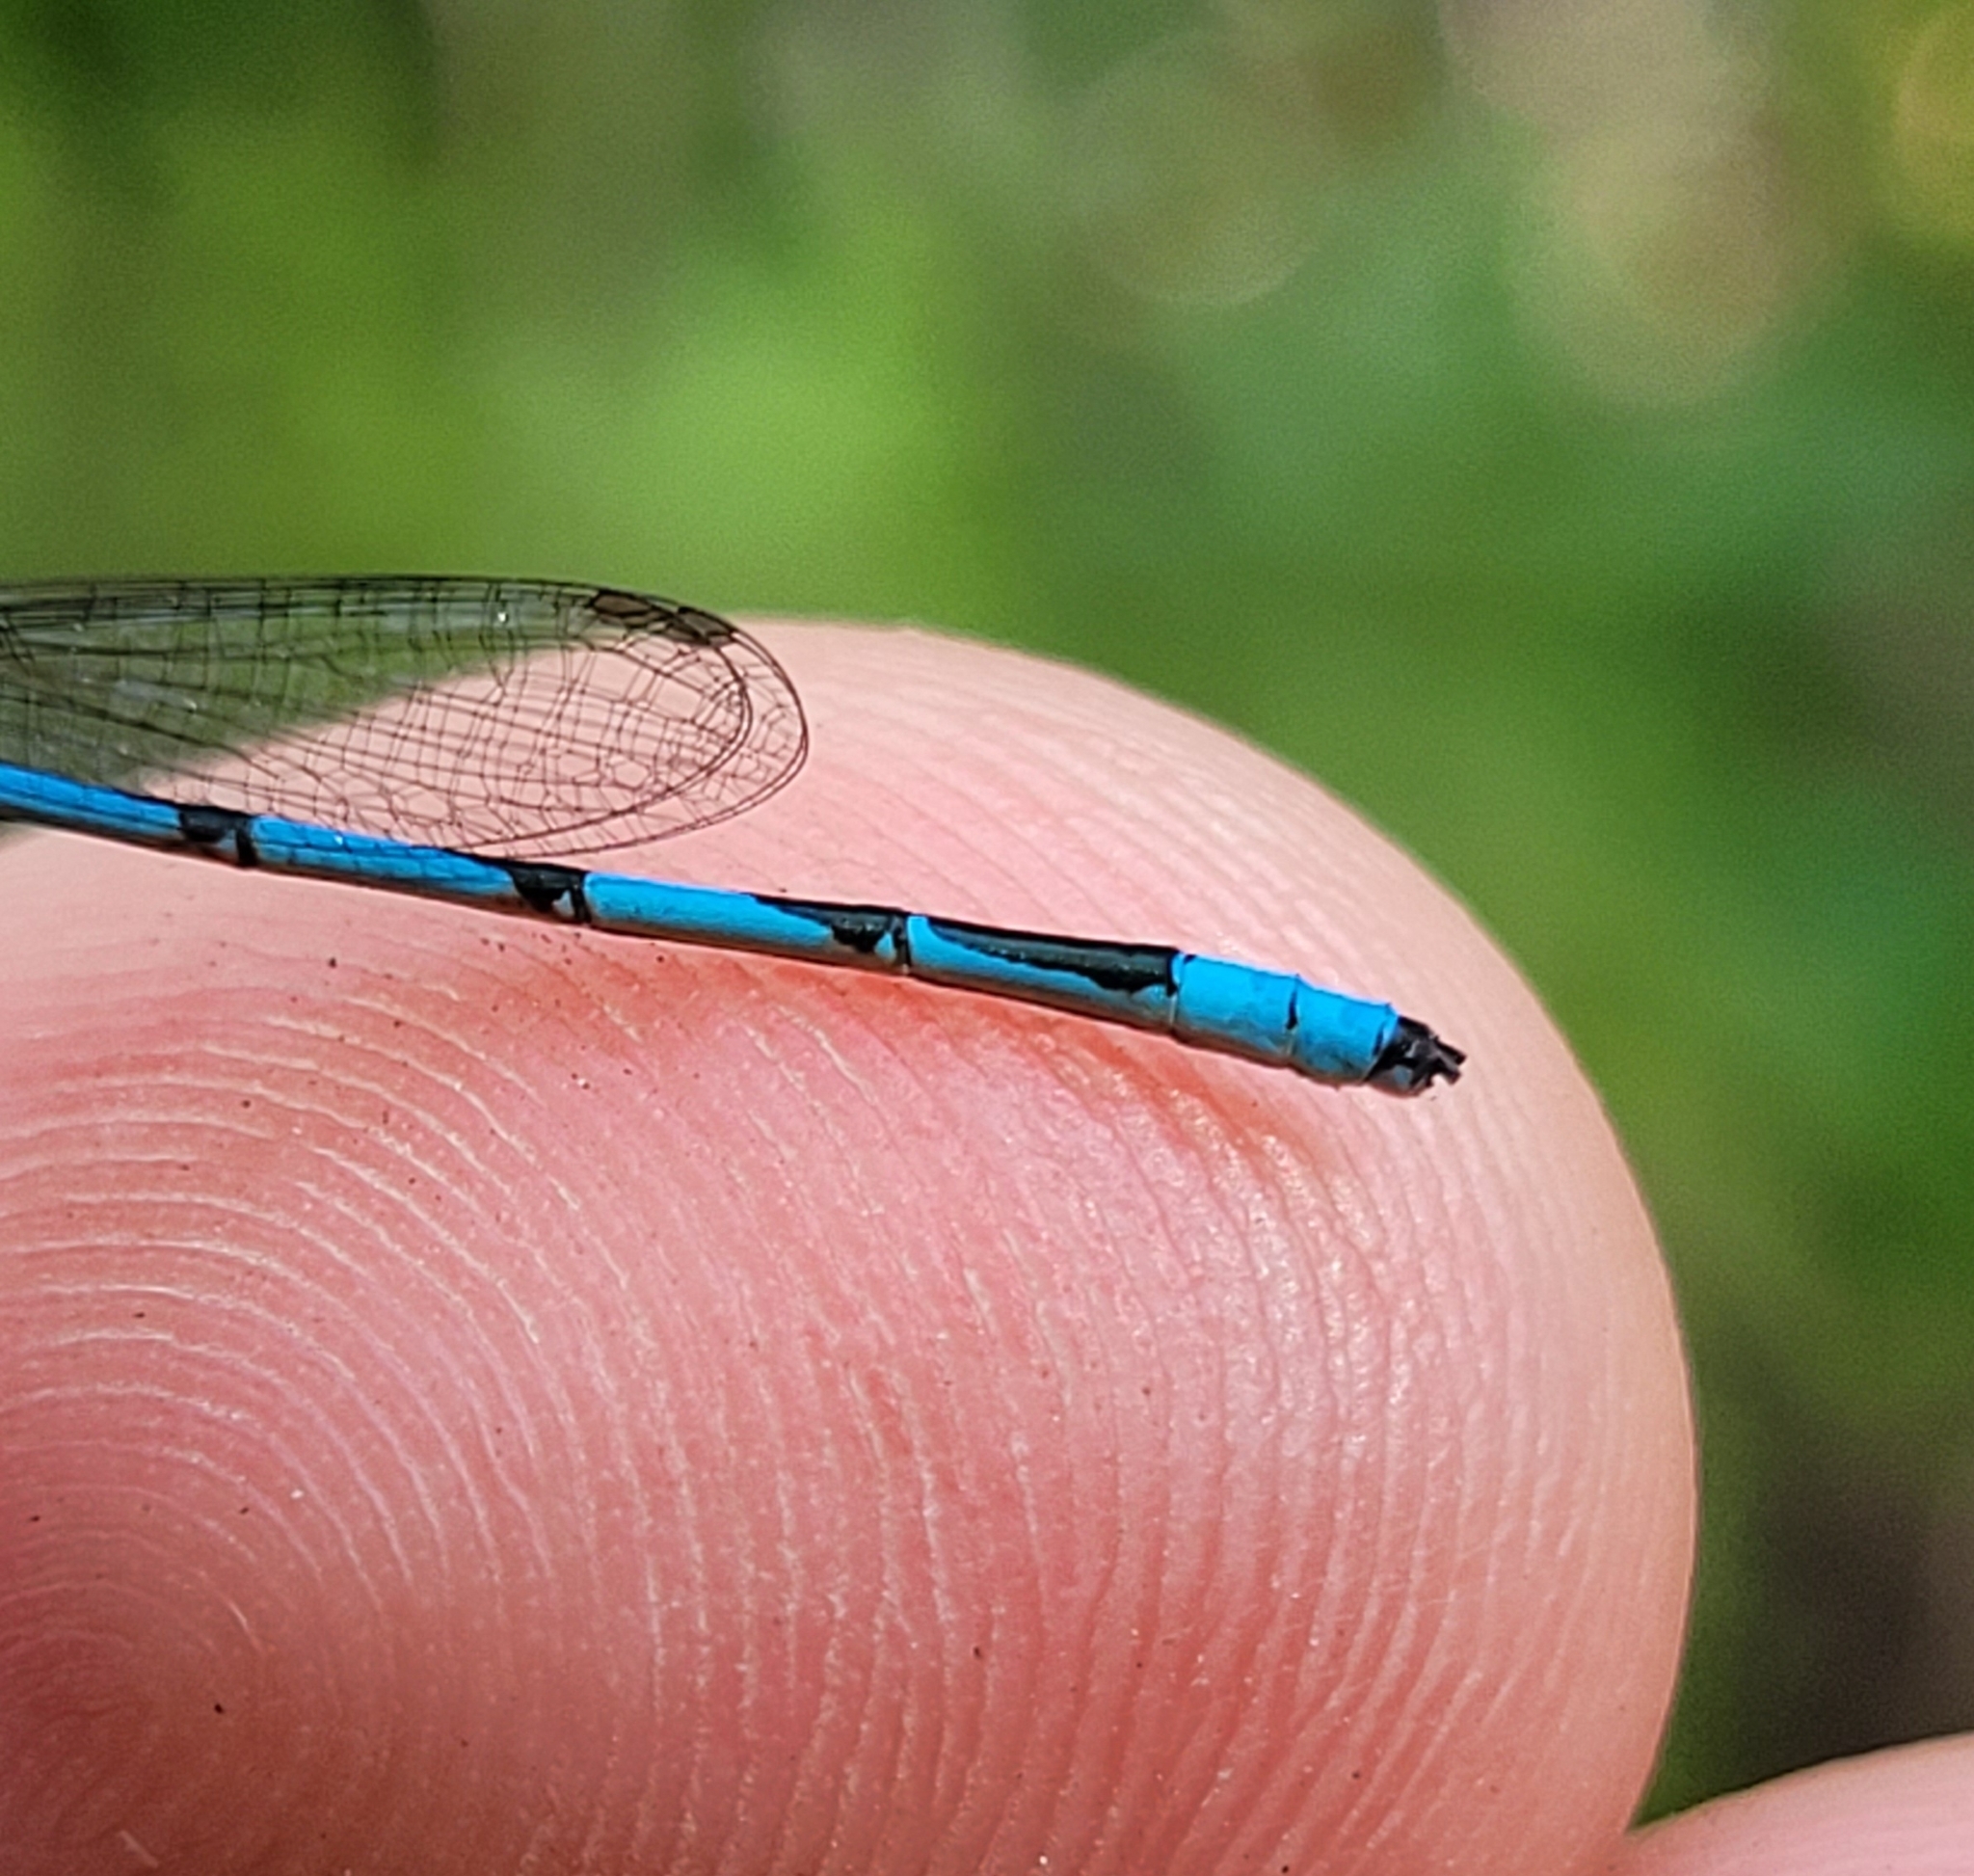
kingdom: Animalia
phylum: Arthropoda
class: Insecta
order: Odonata
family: Coenagrionidae
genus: Enallagma
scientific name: Enallagma basidens
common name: Double-striped bluet
